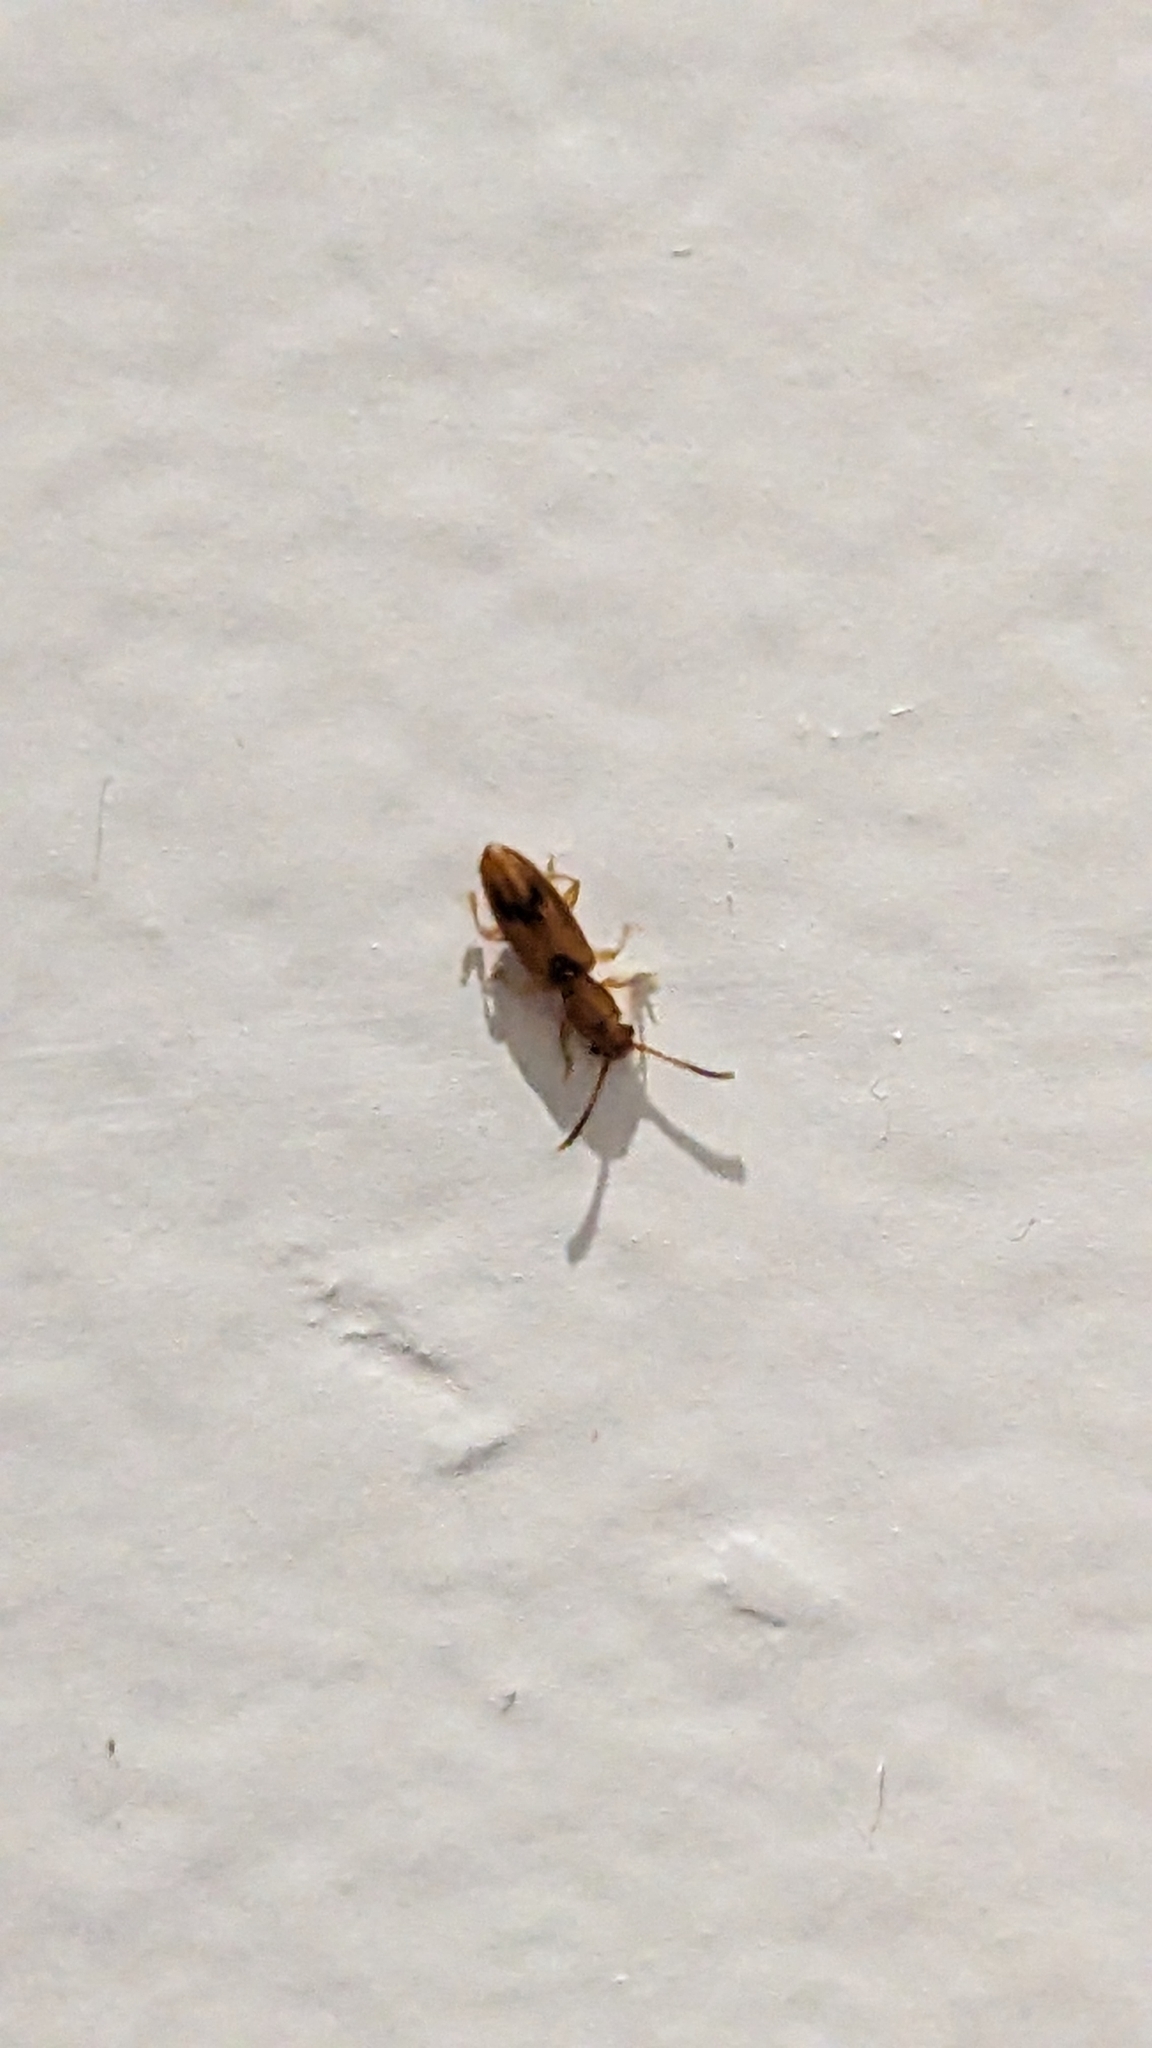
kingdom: Animalia
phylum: Arthropoda
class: Insecta
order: Coleoptera
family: Silvanidae
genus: Cryptamorpha
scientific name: Cryptamorpha desjardinsi
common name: Cryptamorpha
